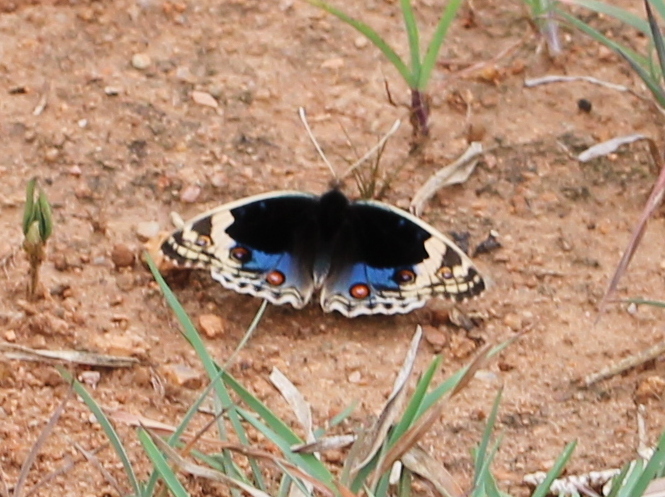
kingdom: Animalia
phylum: Arthropoda
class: Insecta
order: Lepidoptera
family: Nymphalidae
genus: Junonia
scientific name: Junonia orithya
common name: Blue pansy
